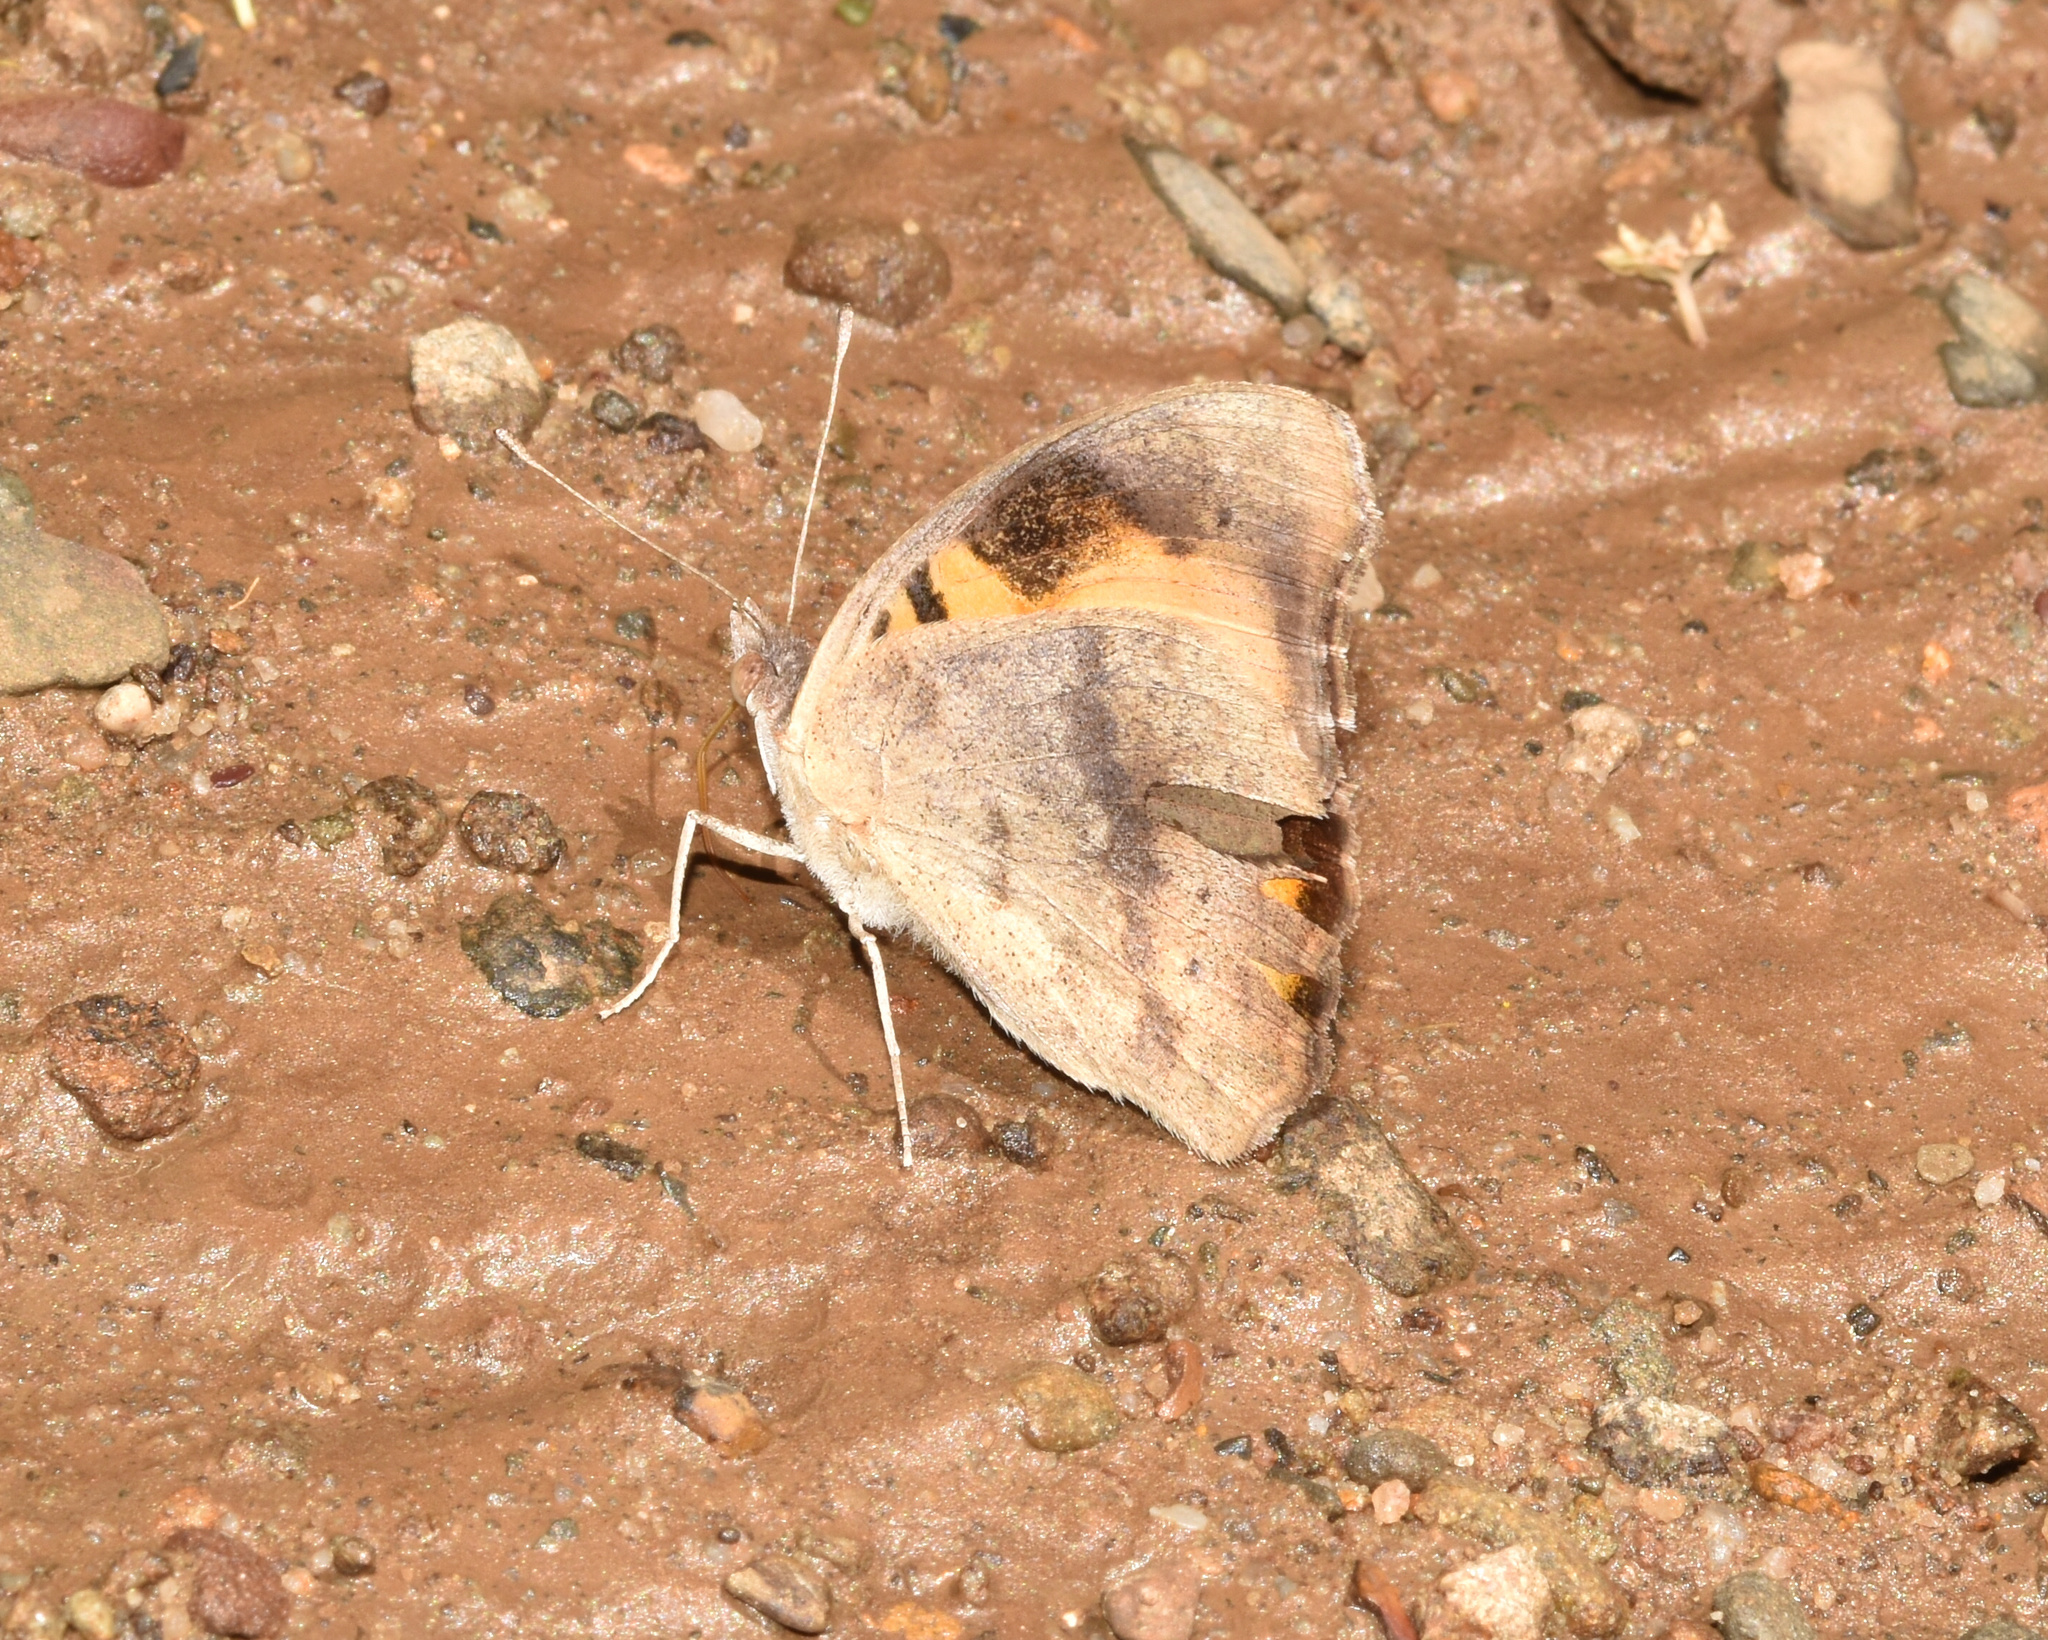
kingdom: Animalia
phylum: Arthropoda
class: Insecta
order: Lepidoptera
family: Nymphalidae
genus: Junonia
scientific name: Junonia hierta
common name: Yellow pansy
